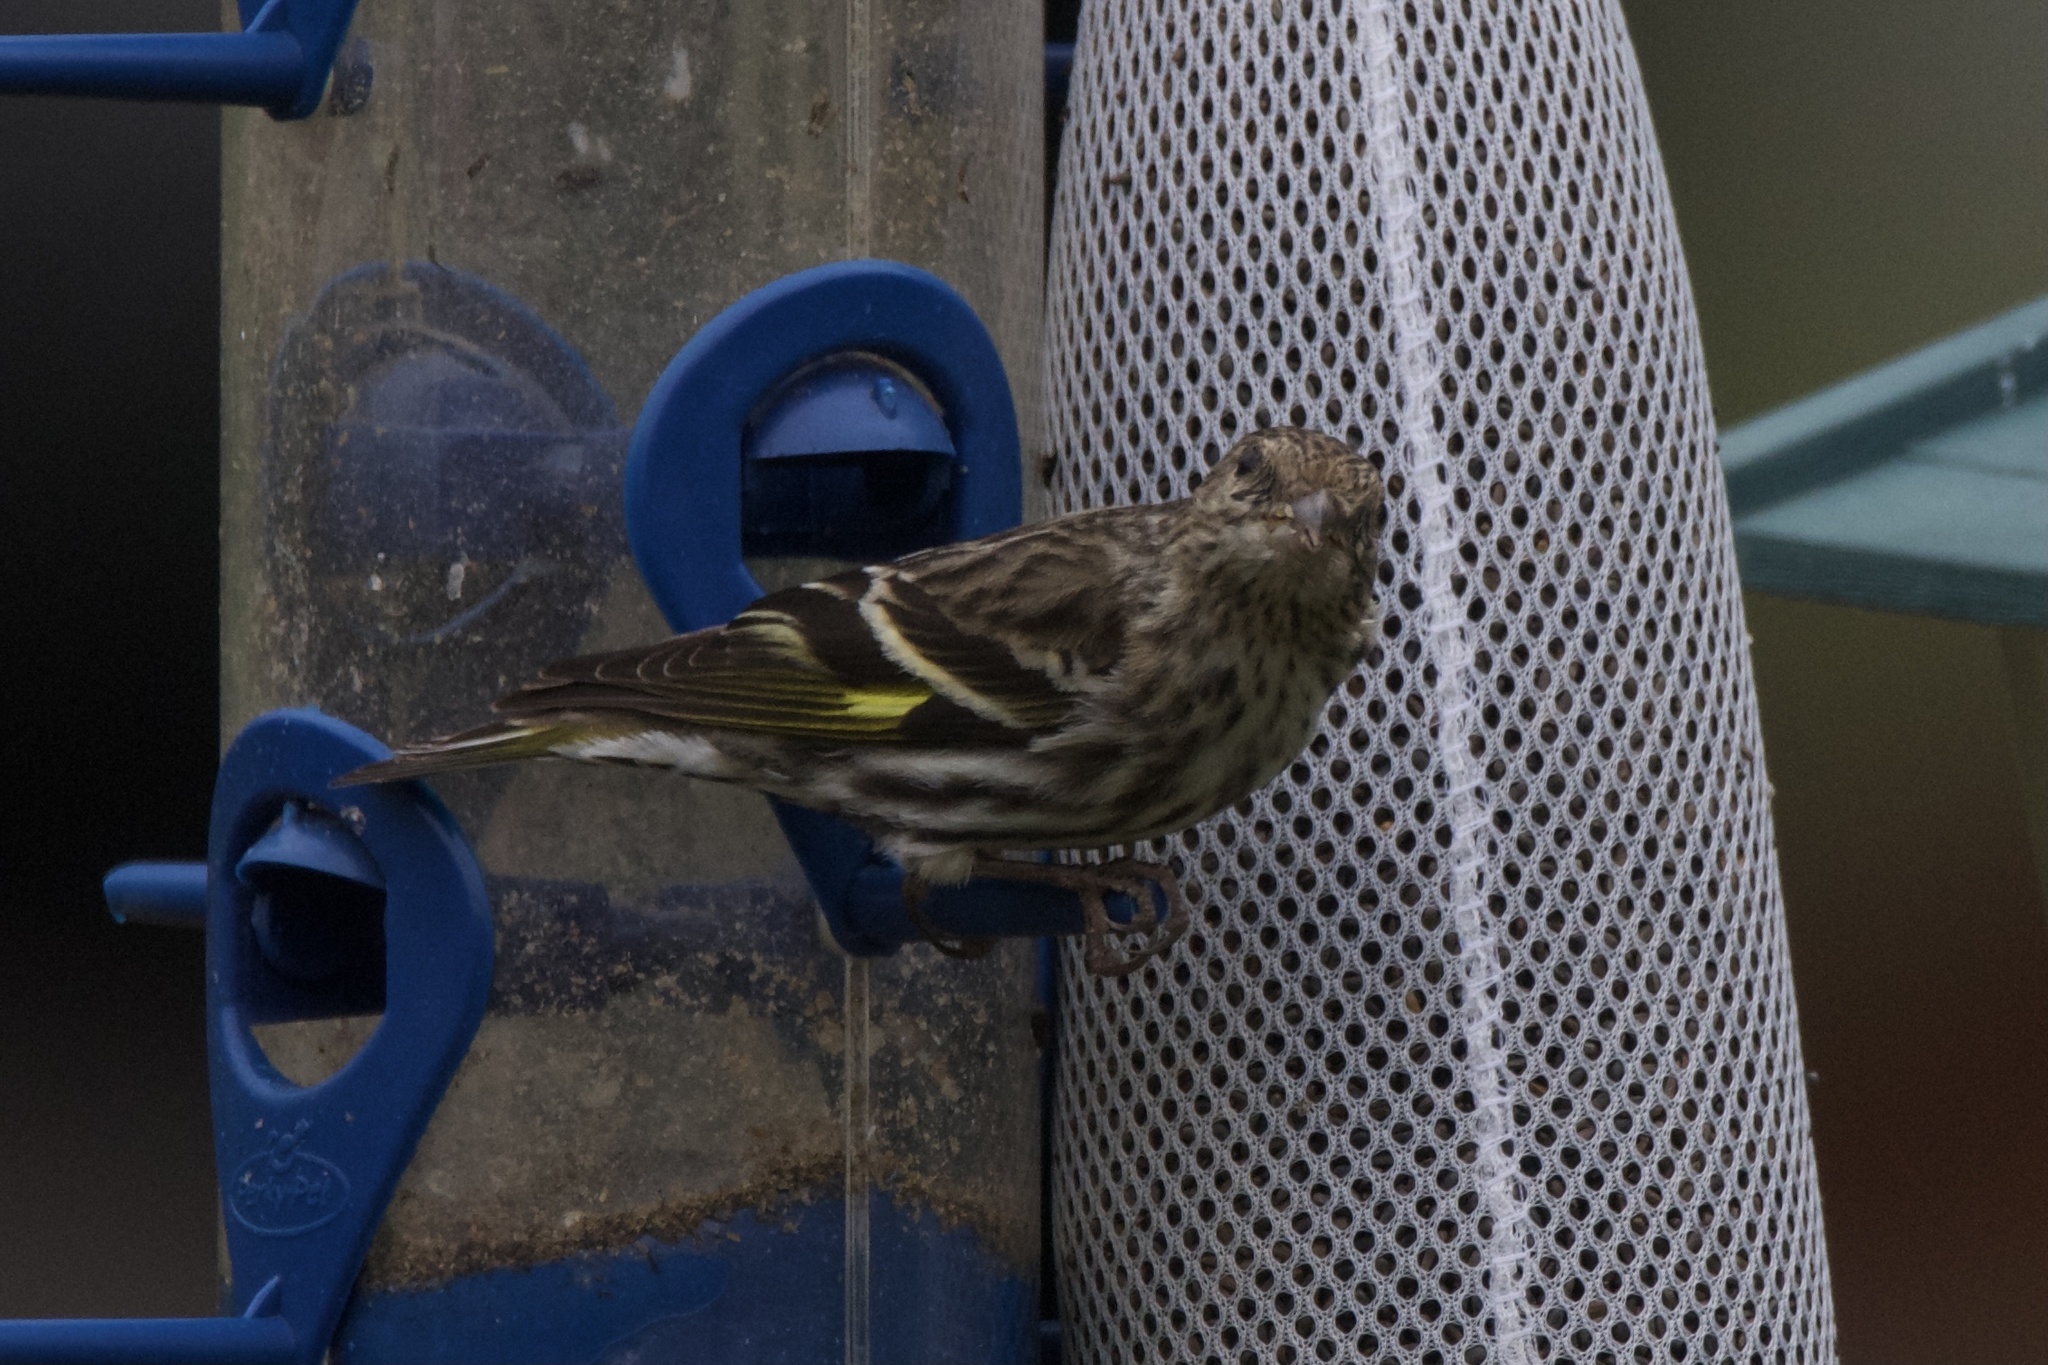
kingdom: Animalia
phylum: Chordata
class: Aves
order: Passeriformes
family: Fringillidae
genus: Spinus
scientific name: Spinus pinus
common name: Pine siskin
